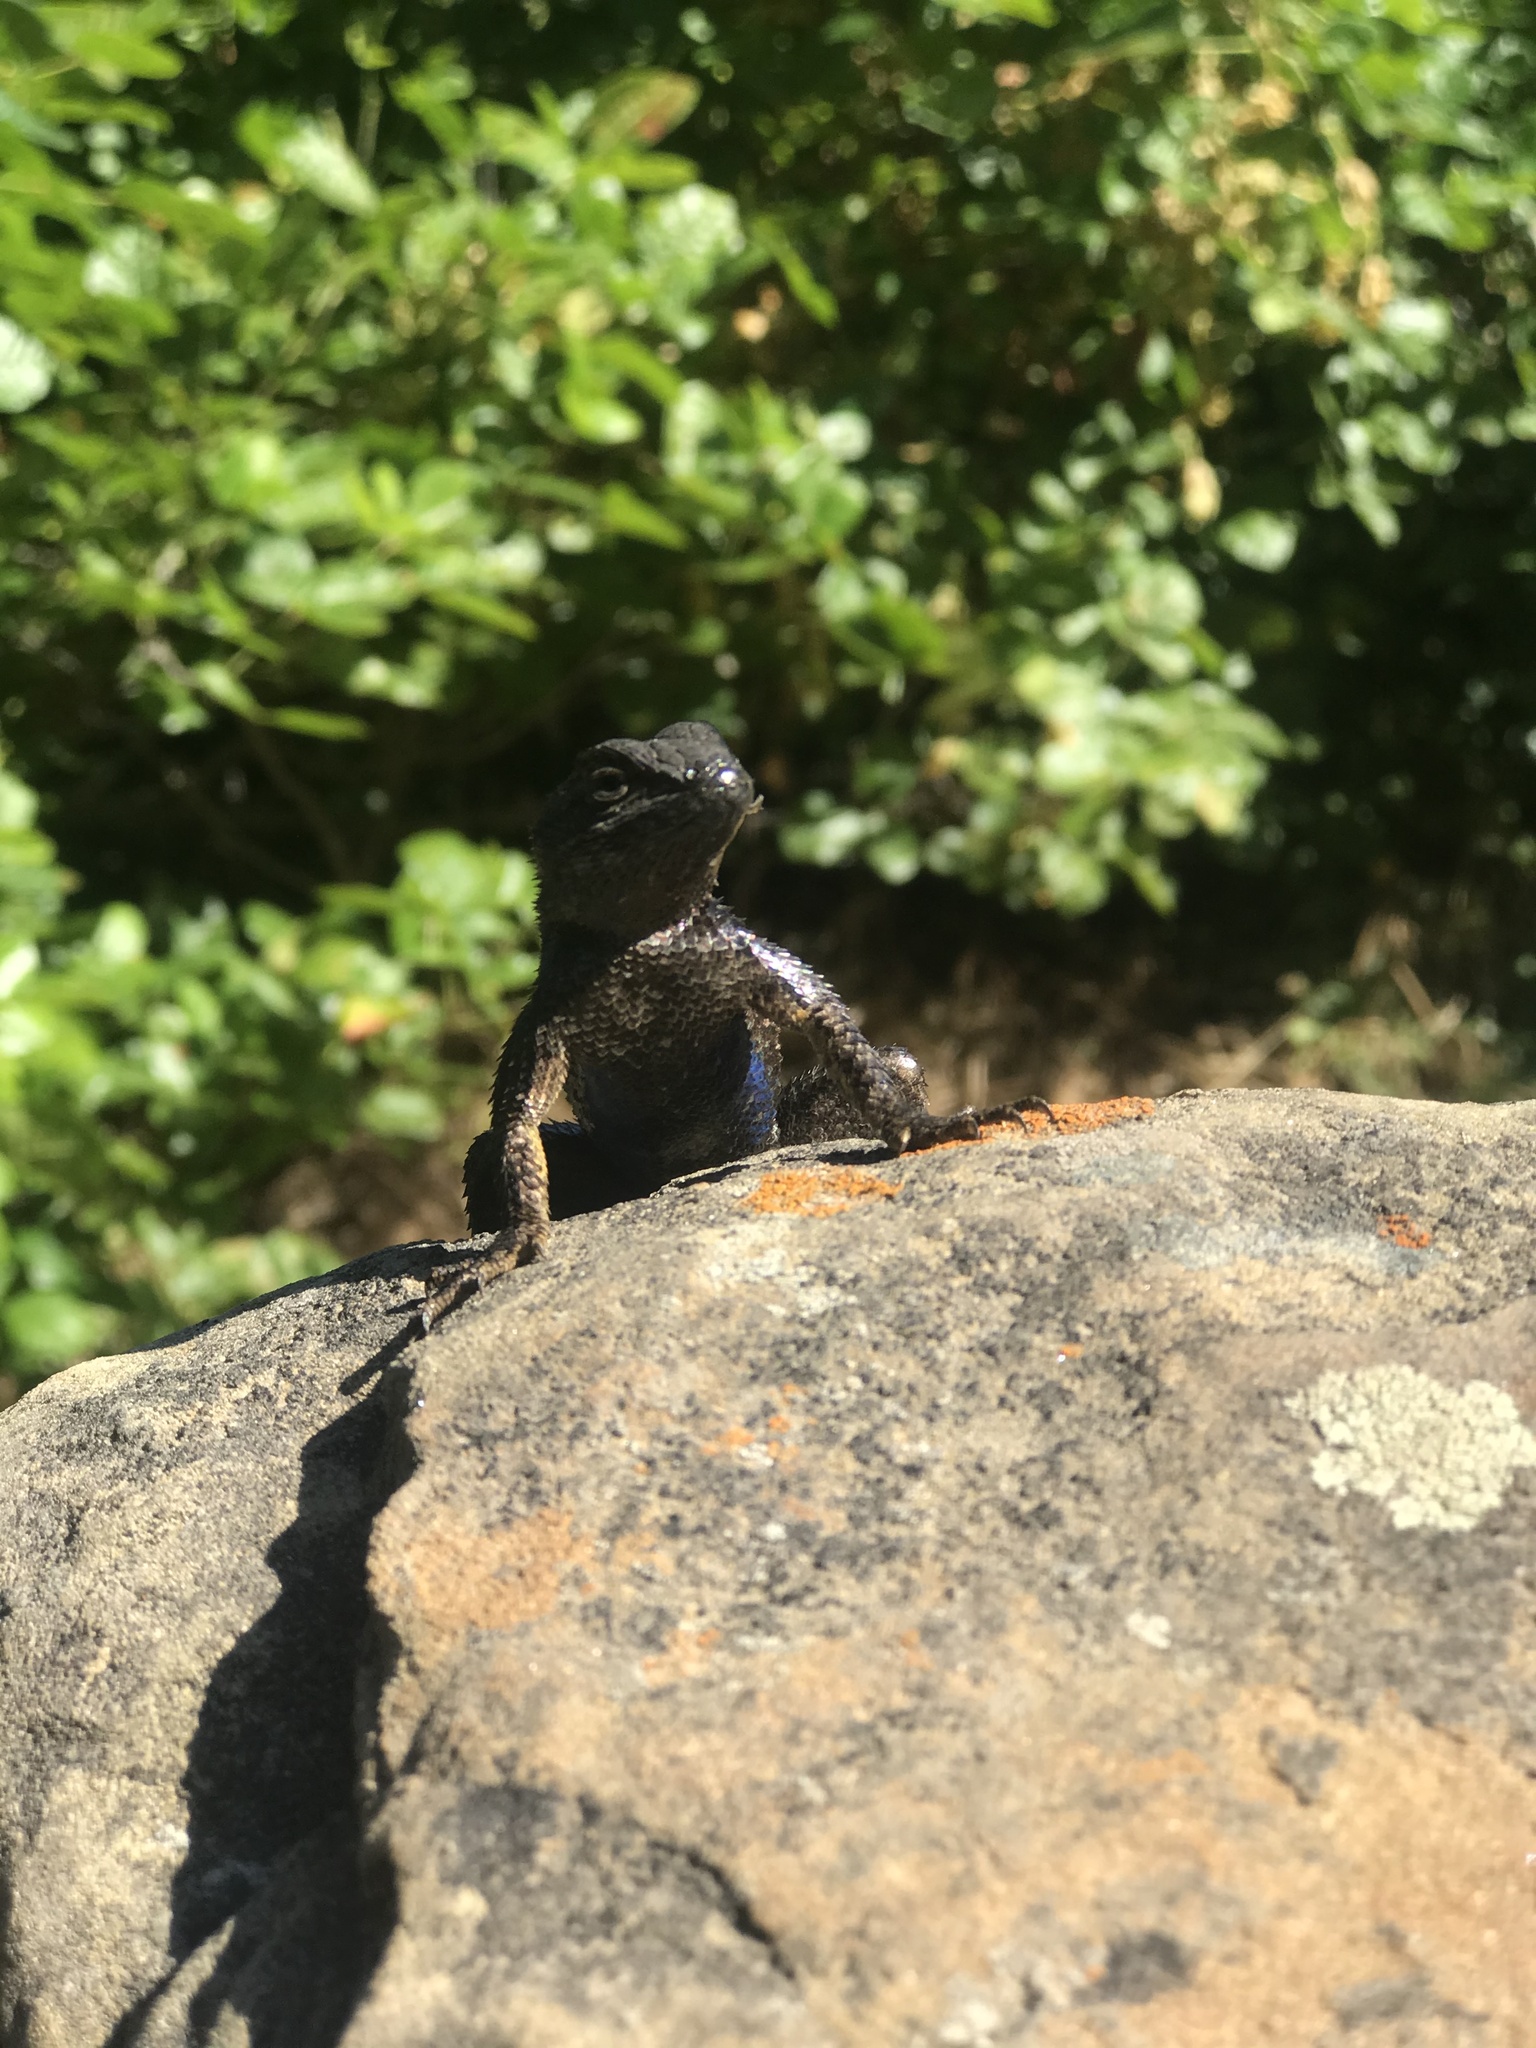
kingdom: Animalia
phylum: Chordata
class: Squamata
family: Phrynosomatidae
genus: Sceloporus
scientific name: Sceloporus occidentalis
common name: Western fence lizard
